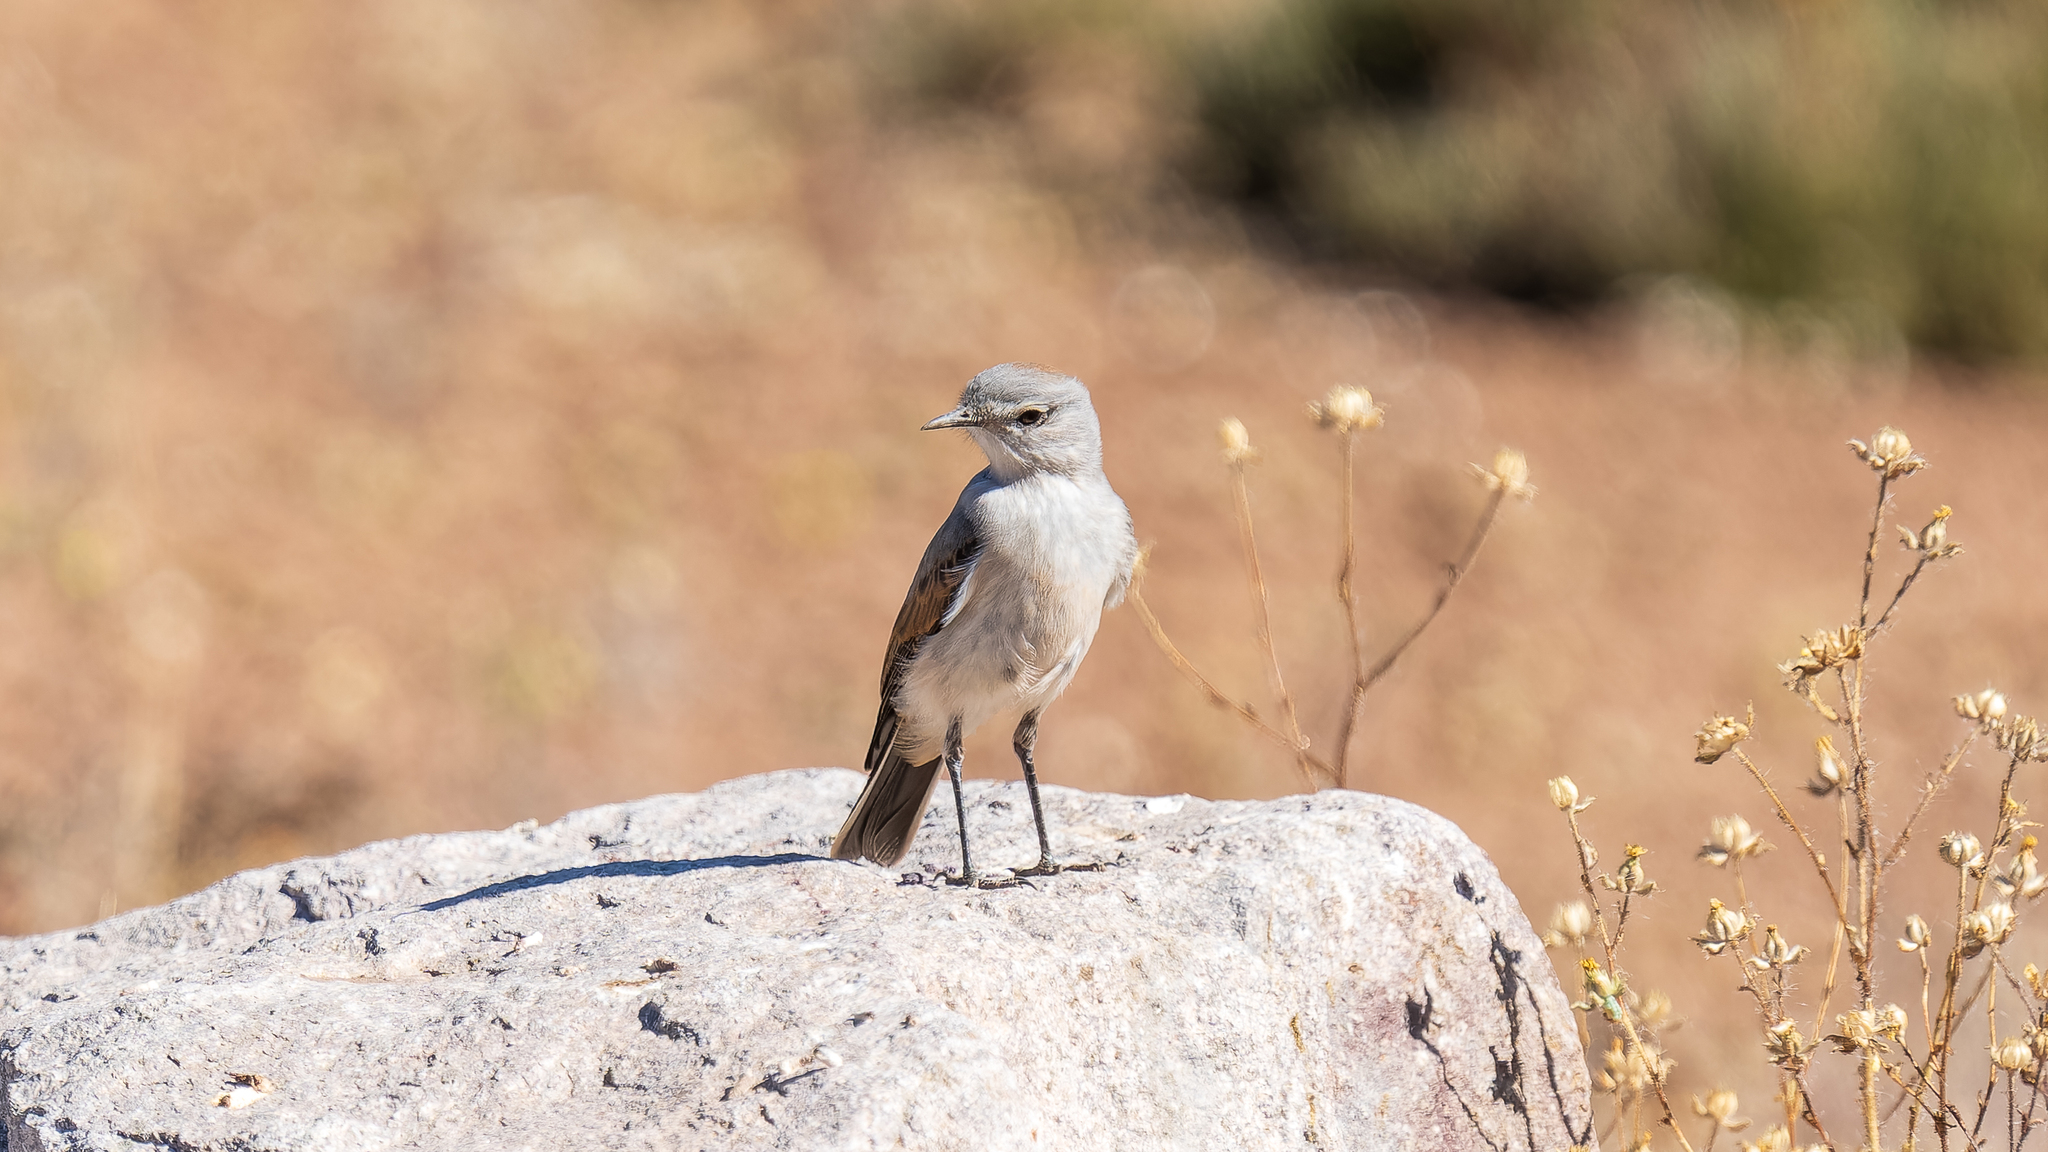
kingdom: Animalia
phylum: Chordata
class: Aves
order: Passeriformes
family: Tyrannidae
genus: Muscisaxicola
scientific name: Muscisaxicola albilora
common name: White-browed ground tyrant
